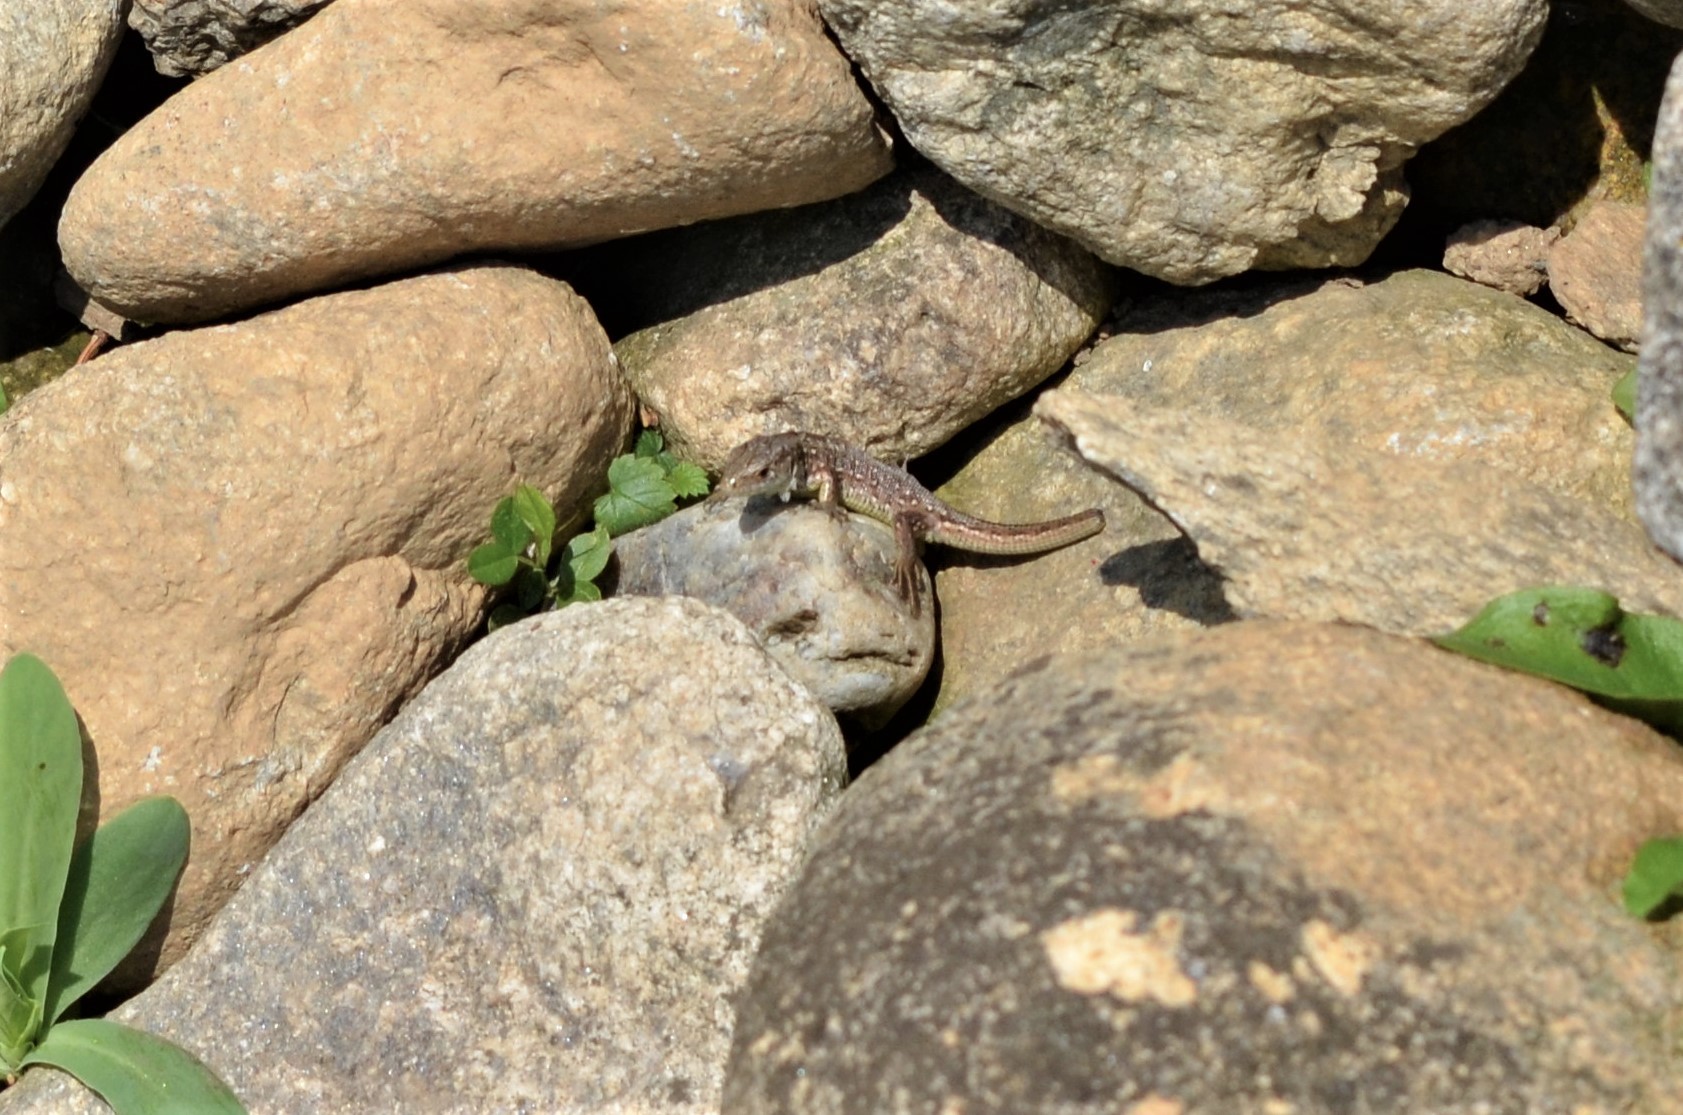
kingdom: Animalia
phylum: Chordata
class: Squamata
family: Lacertidae
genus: Lacerta
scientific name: Lacerta agilis
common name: Sand lizard
